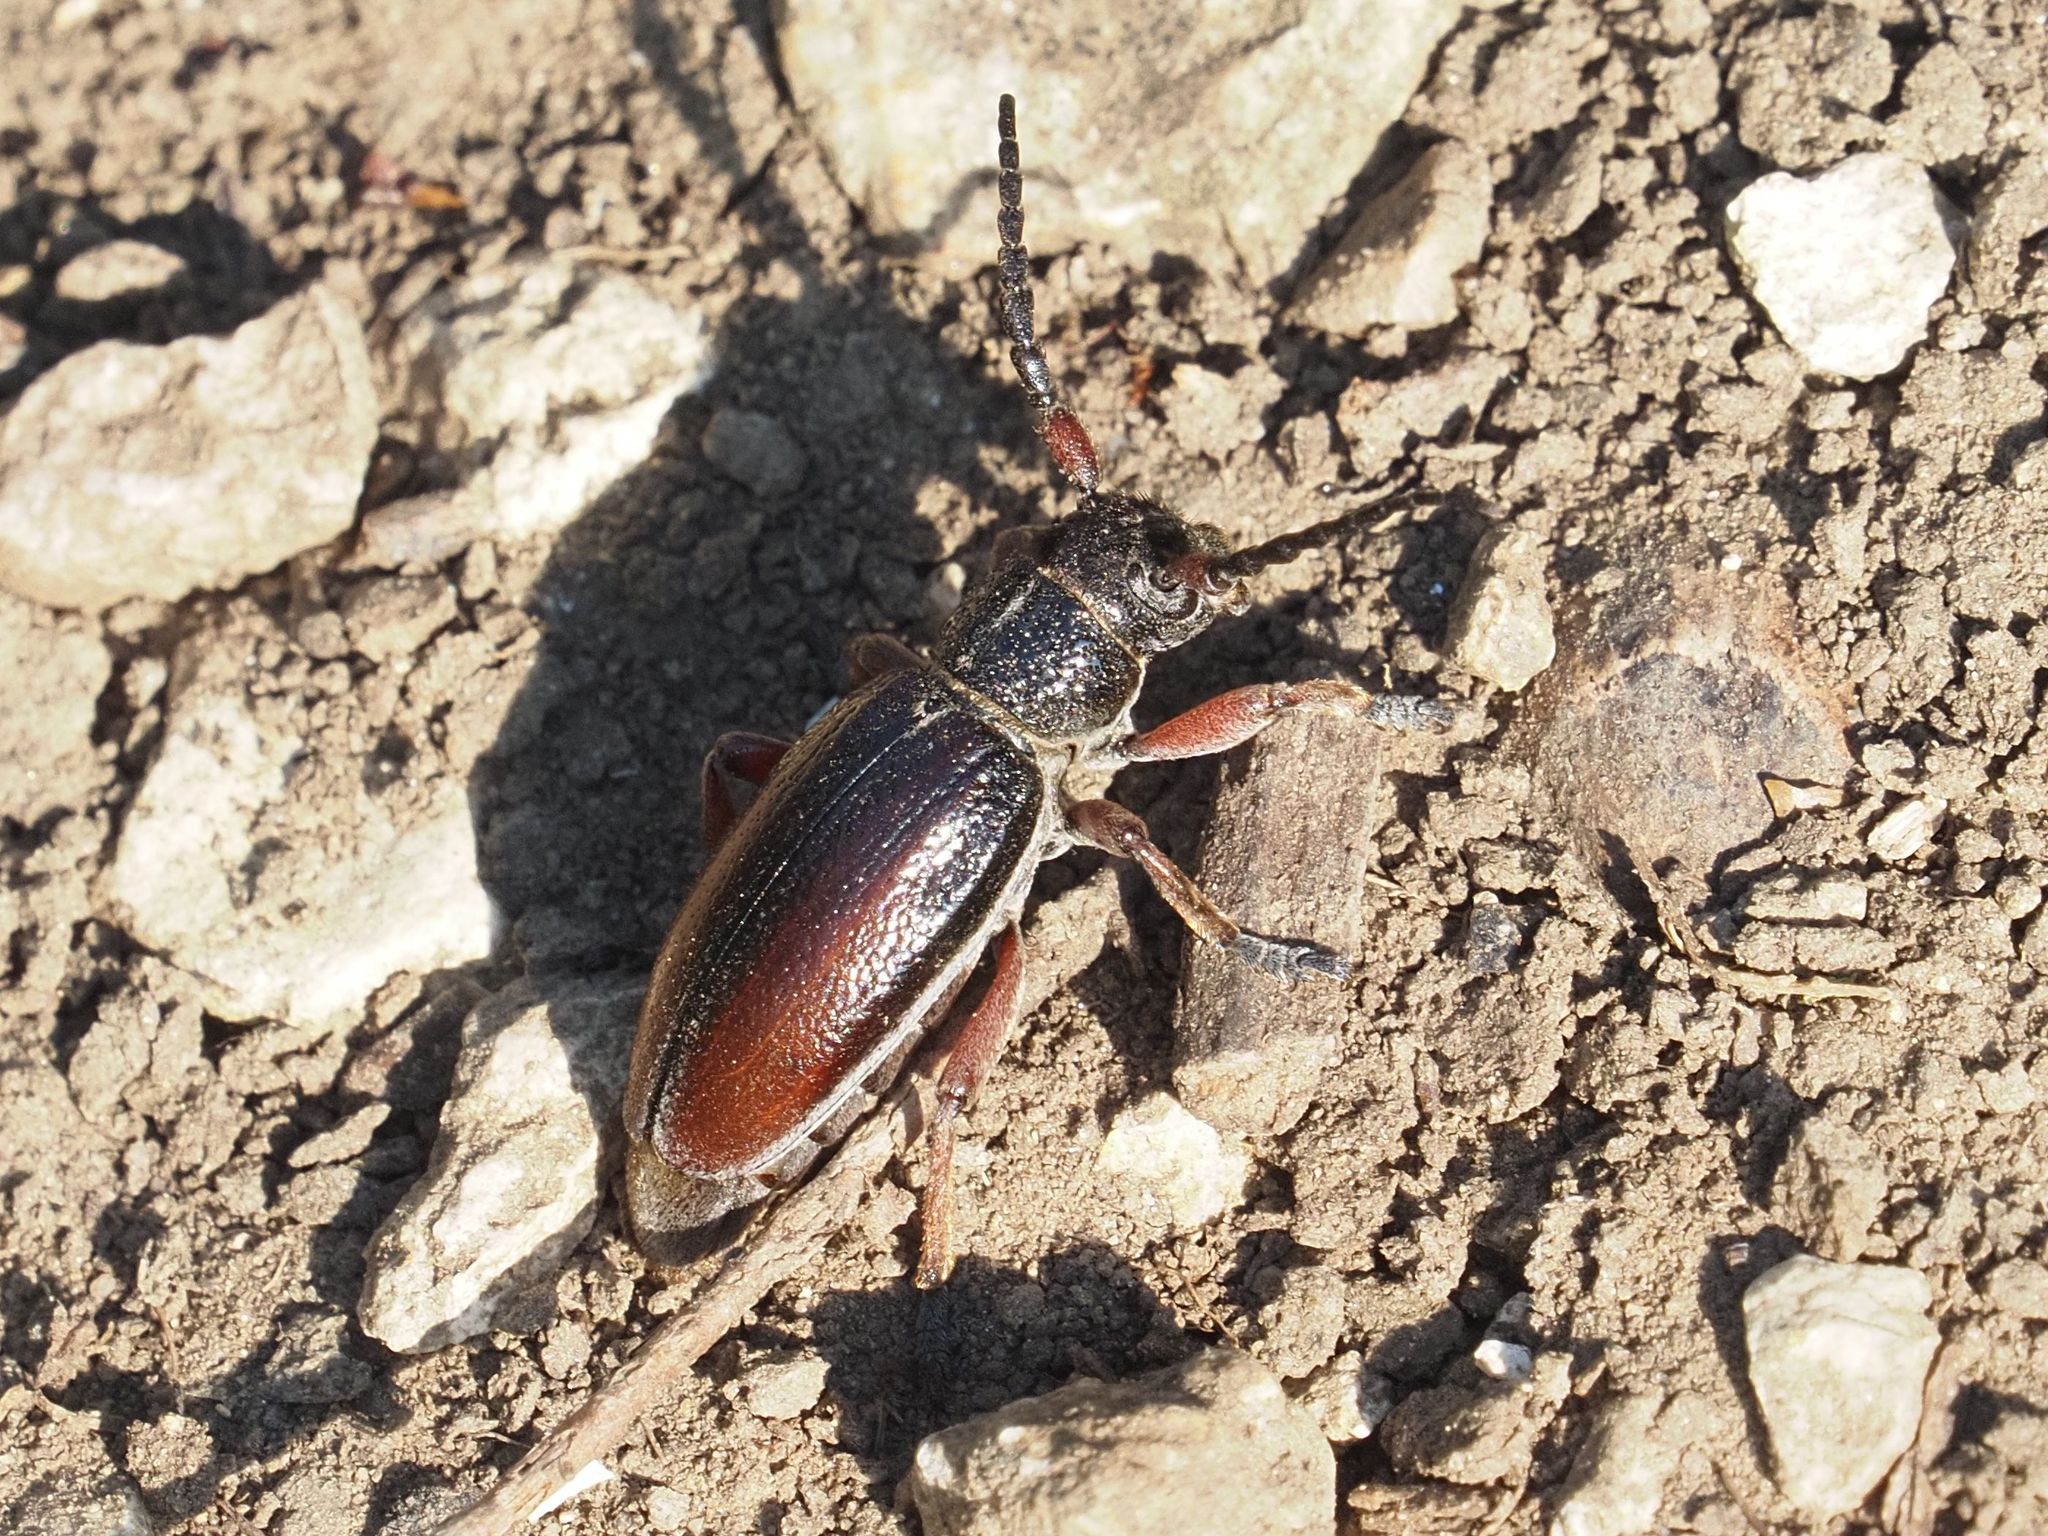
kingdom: Animalia
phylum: Arthropoda
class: Insecta
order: Coleoptera
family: Cerambycidae
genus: Dorcadion
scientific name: Dorcadion fulvum
